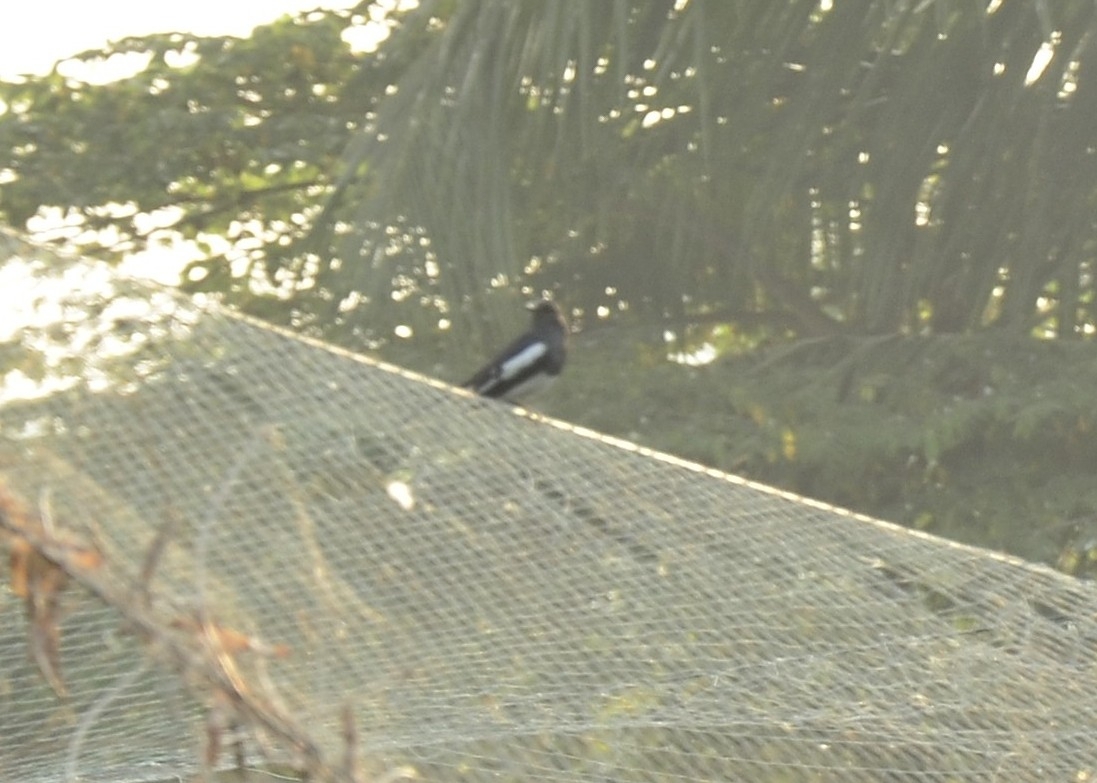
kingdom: Animalia
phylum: Chordata
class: Aves
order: Passeriformes
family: Muscicapidae
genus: Copsychus
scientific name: Copsychus saularis
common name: Oriental magpie-robin
